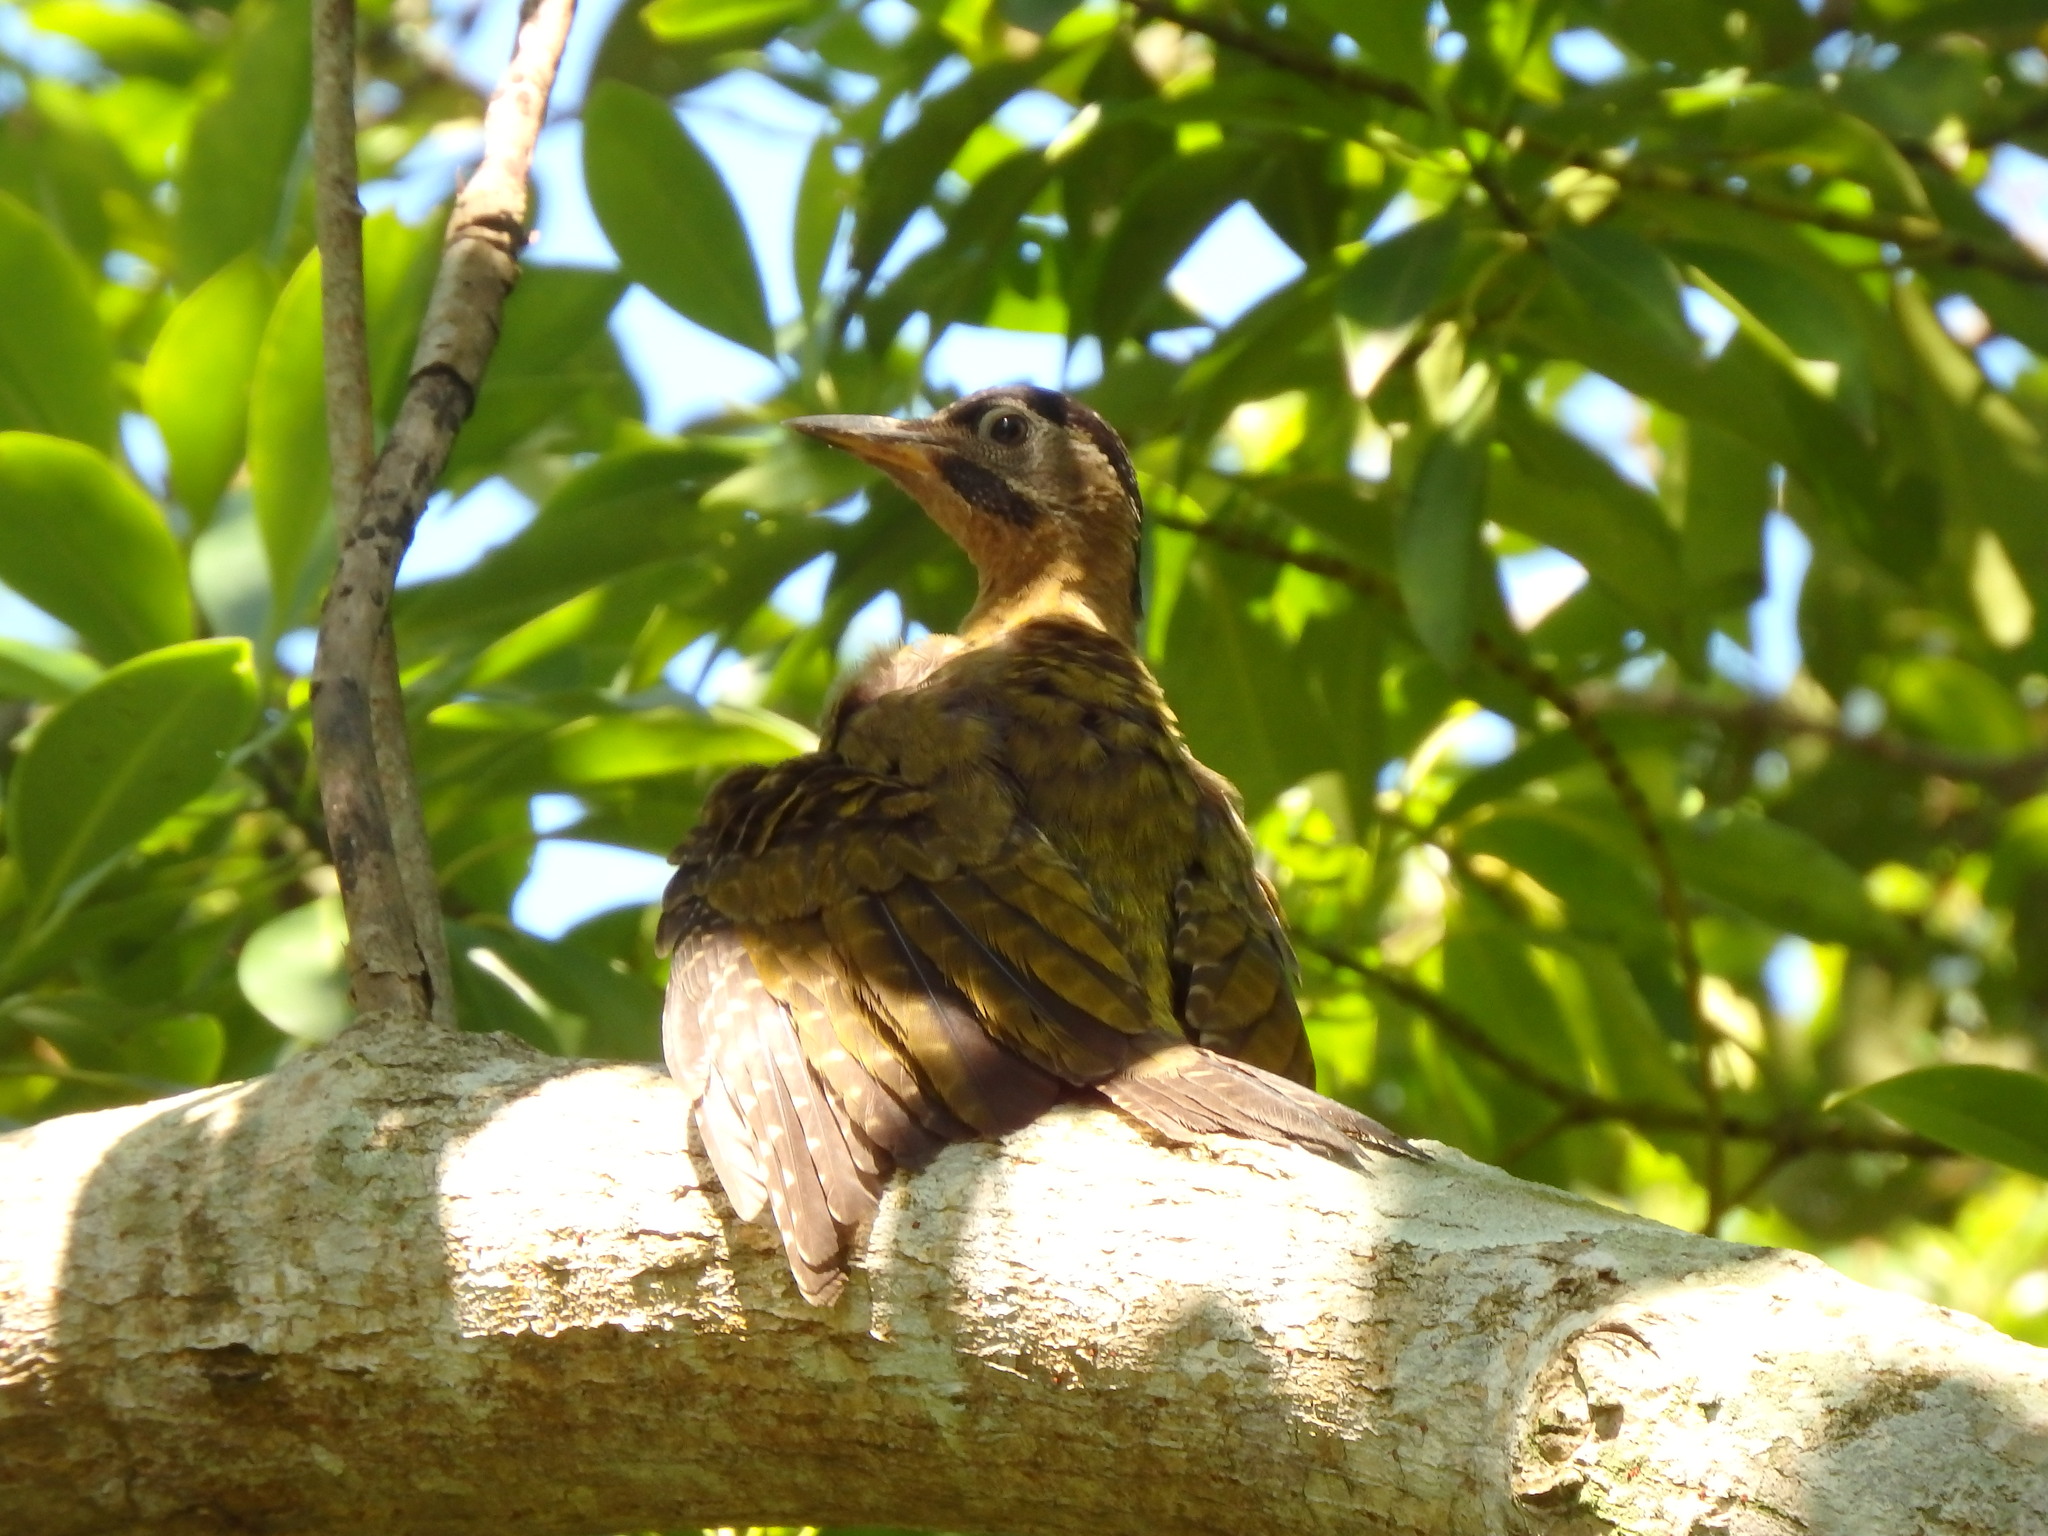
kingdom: Animalia
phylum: Chordata
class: Aves
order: Piciformes
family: Picidae
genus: Picus
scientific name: Picus vittatus
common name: Laced woodpecker
